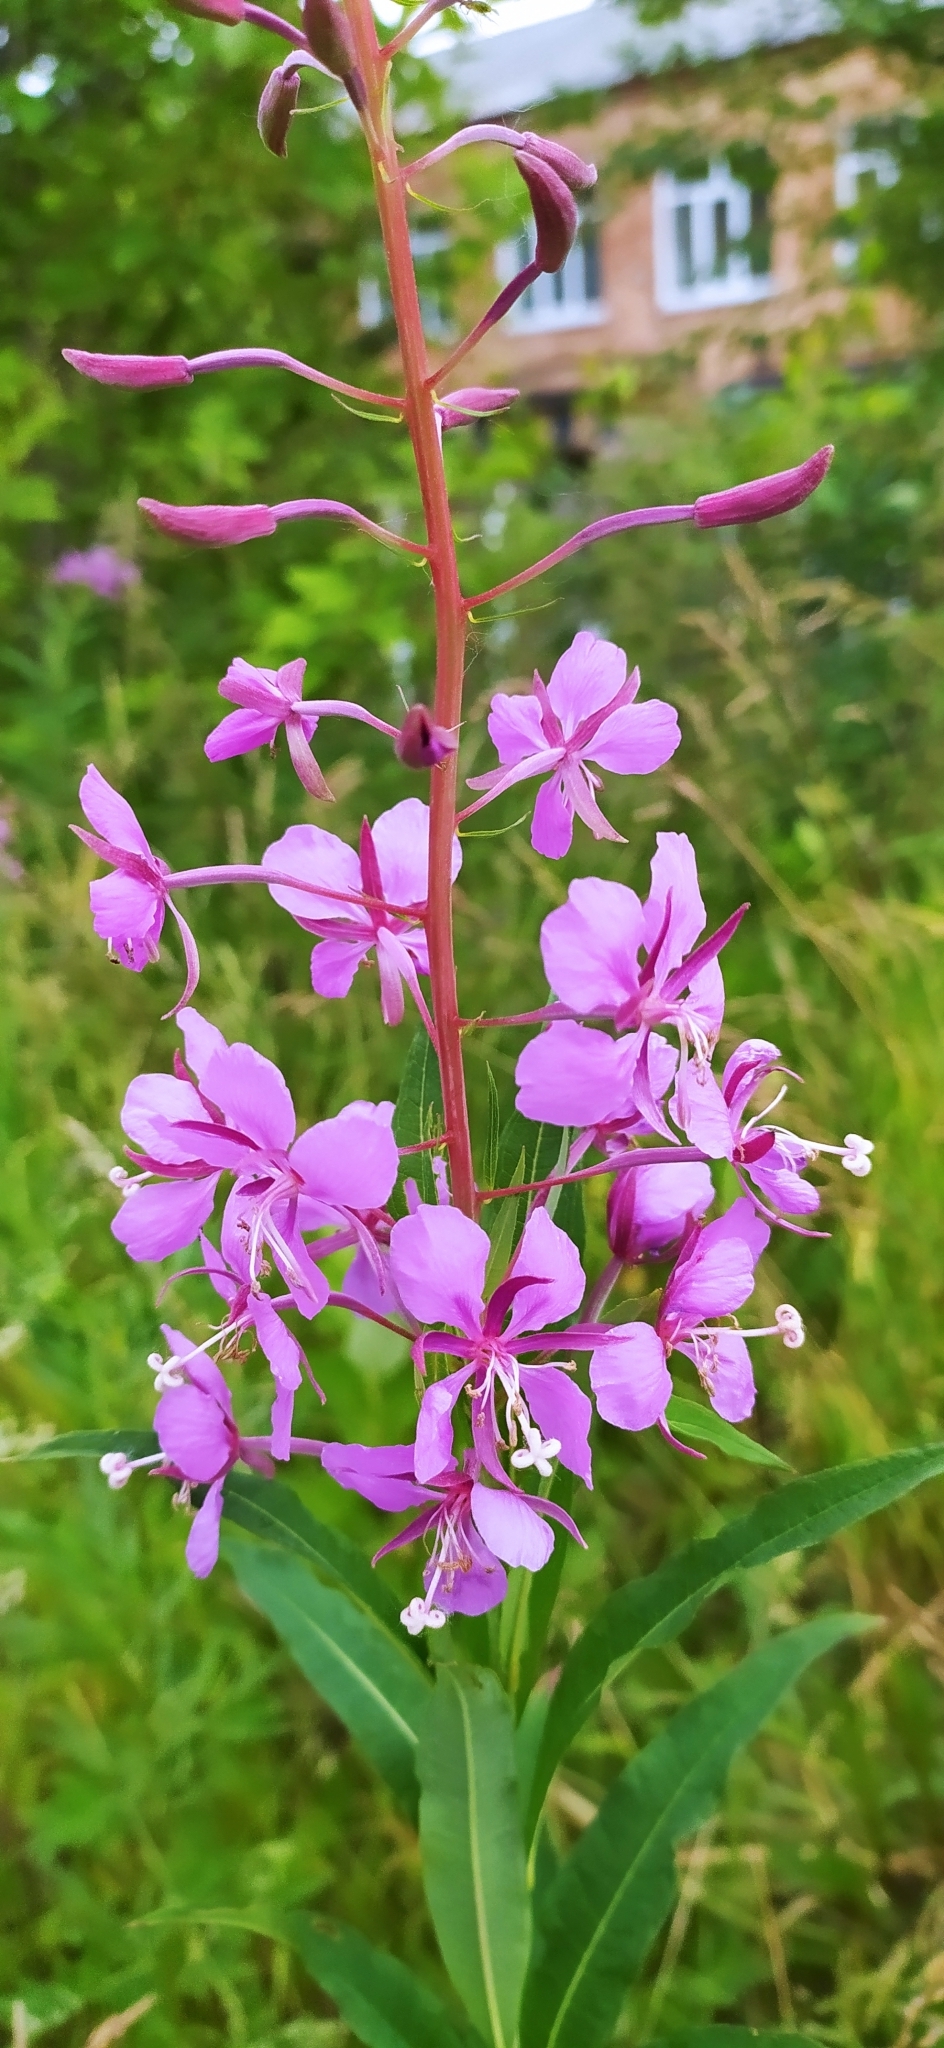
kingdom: Plantae
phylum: Tracheophyta
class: Magnoliopsida
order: Myrtales
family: Onagraceae
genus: Chamaenerion
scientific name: Chamaenerion angustifolium
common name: Fireweed
